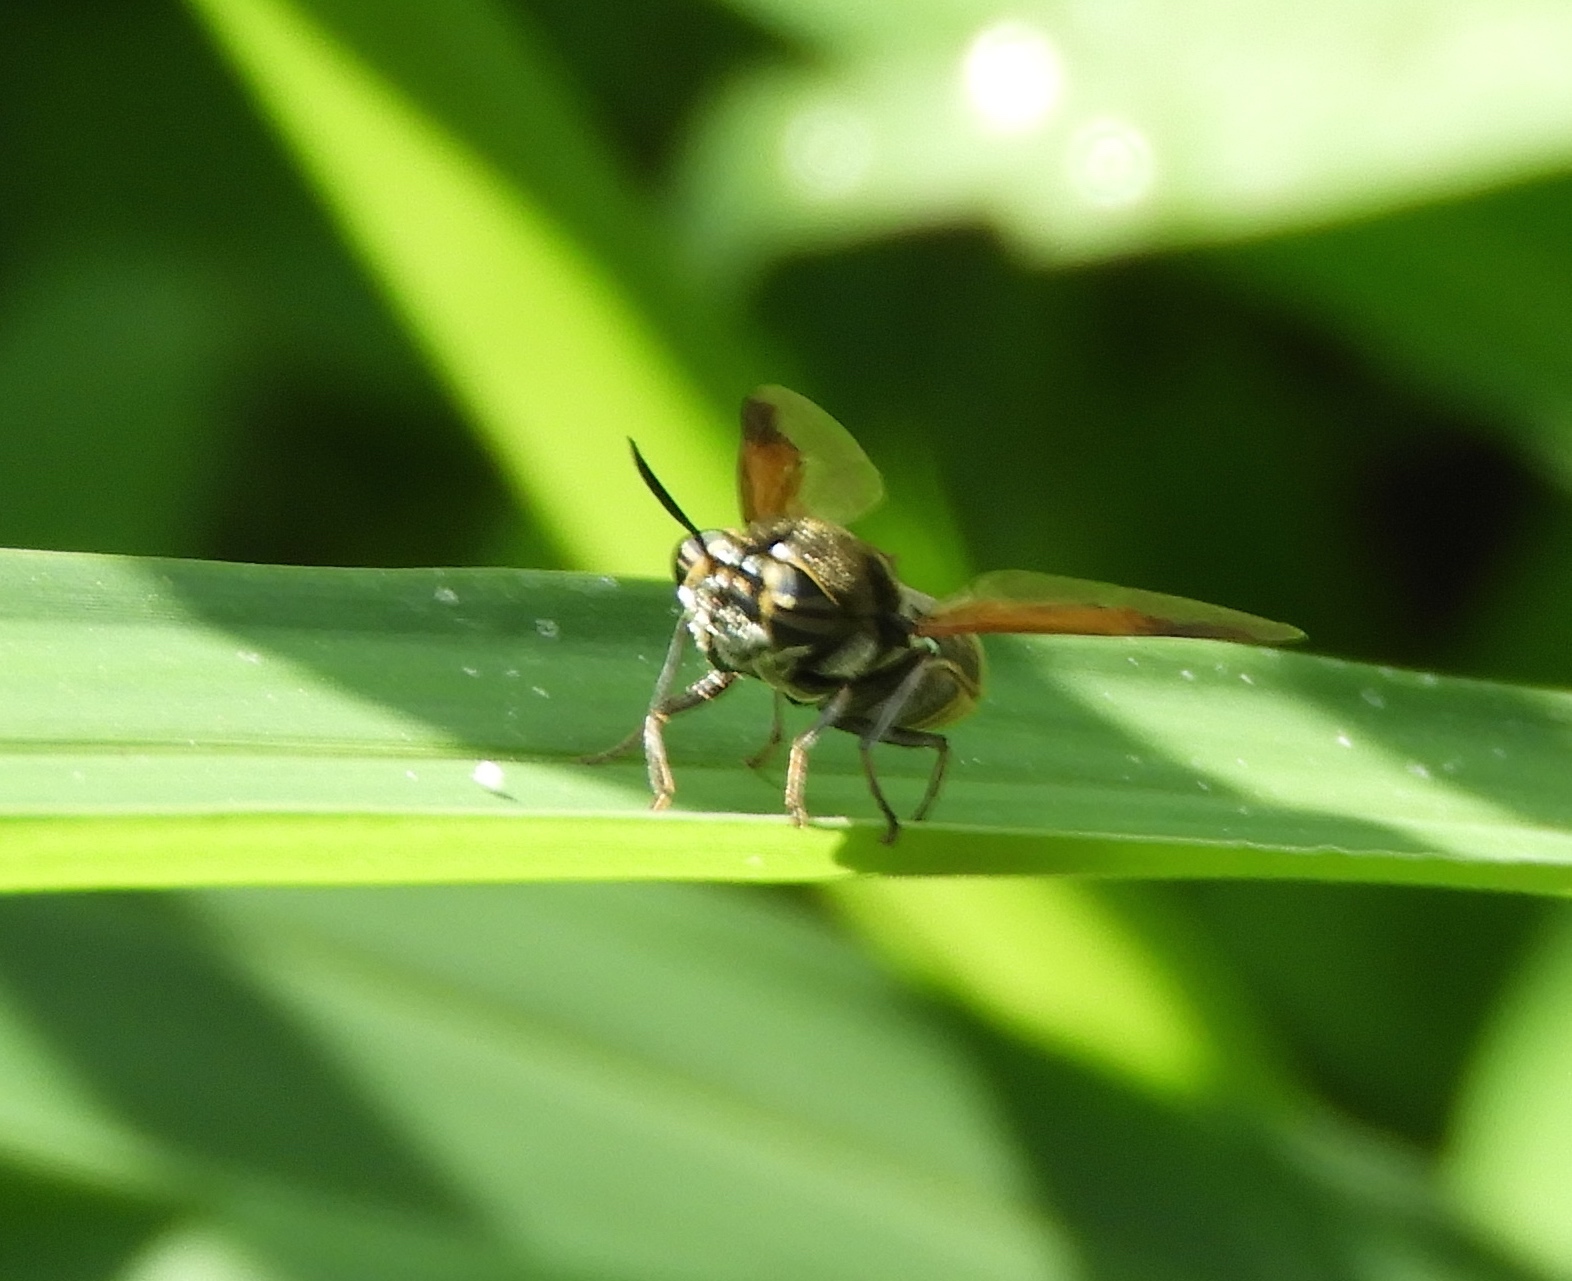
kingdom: Animalia
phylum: Arthropoda
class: Insecta
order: Diptera
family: Stratiomyidae
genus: Hoplitimyia
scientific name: Hoplitimyia
